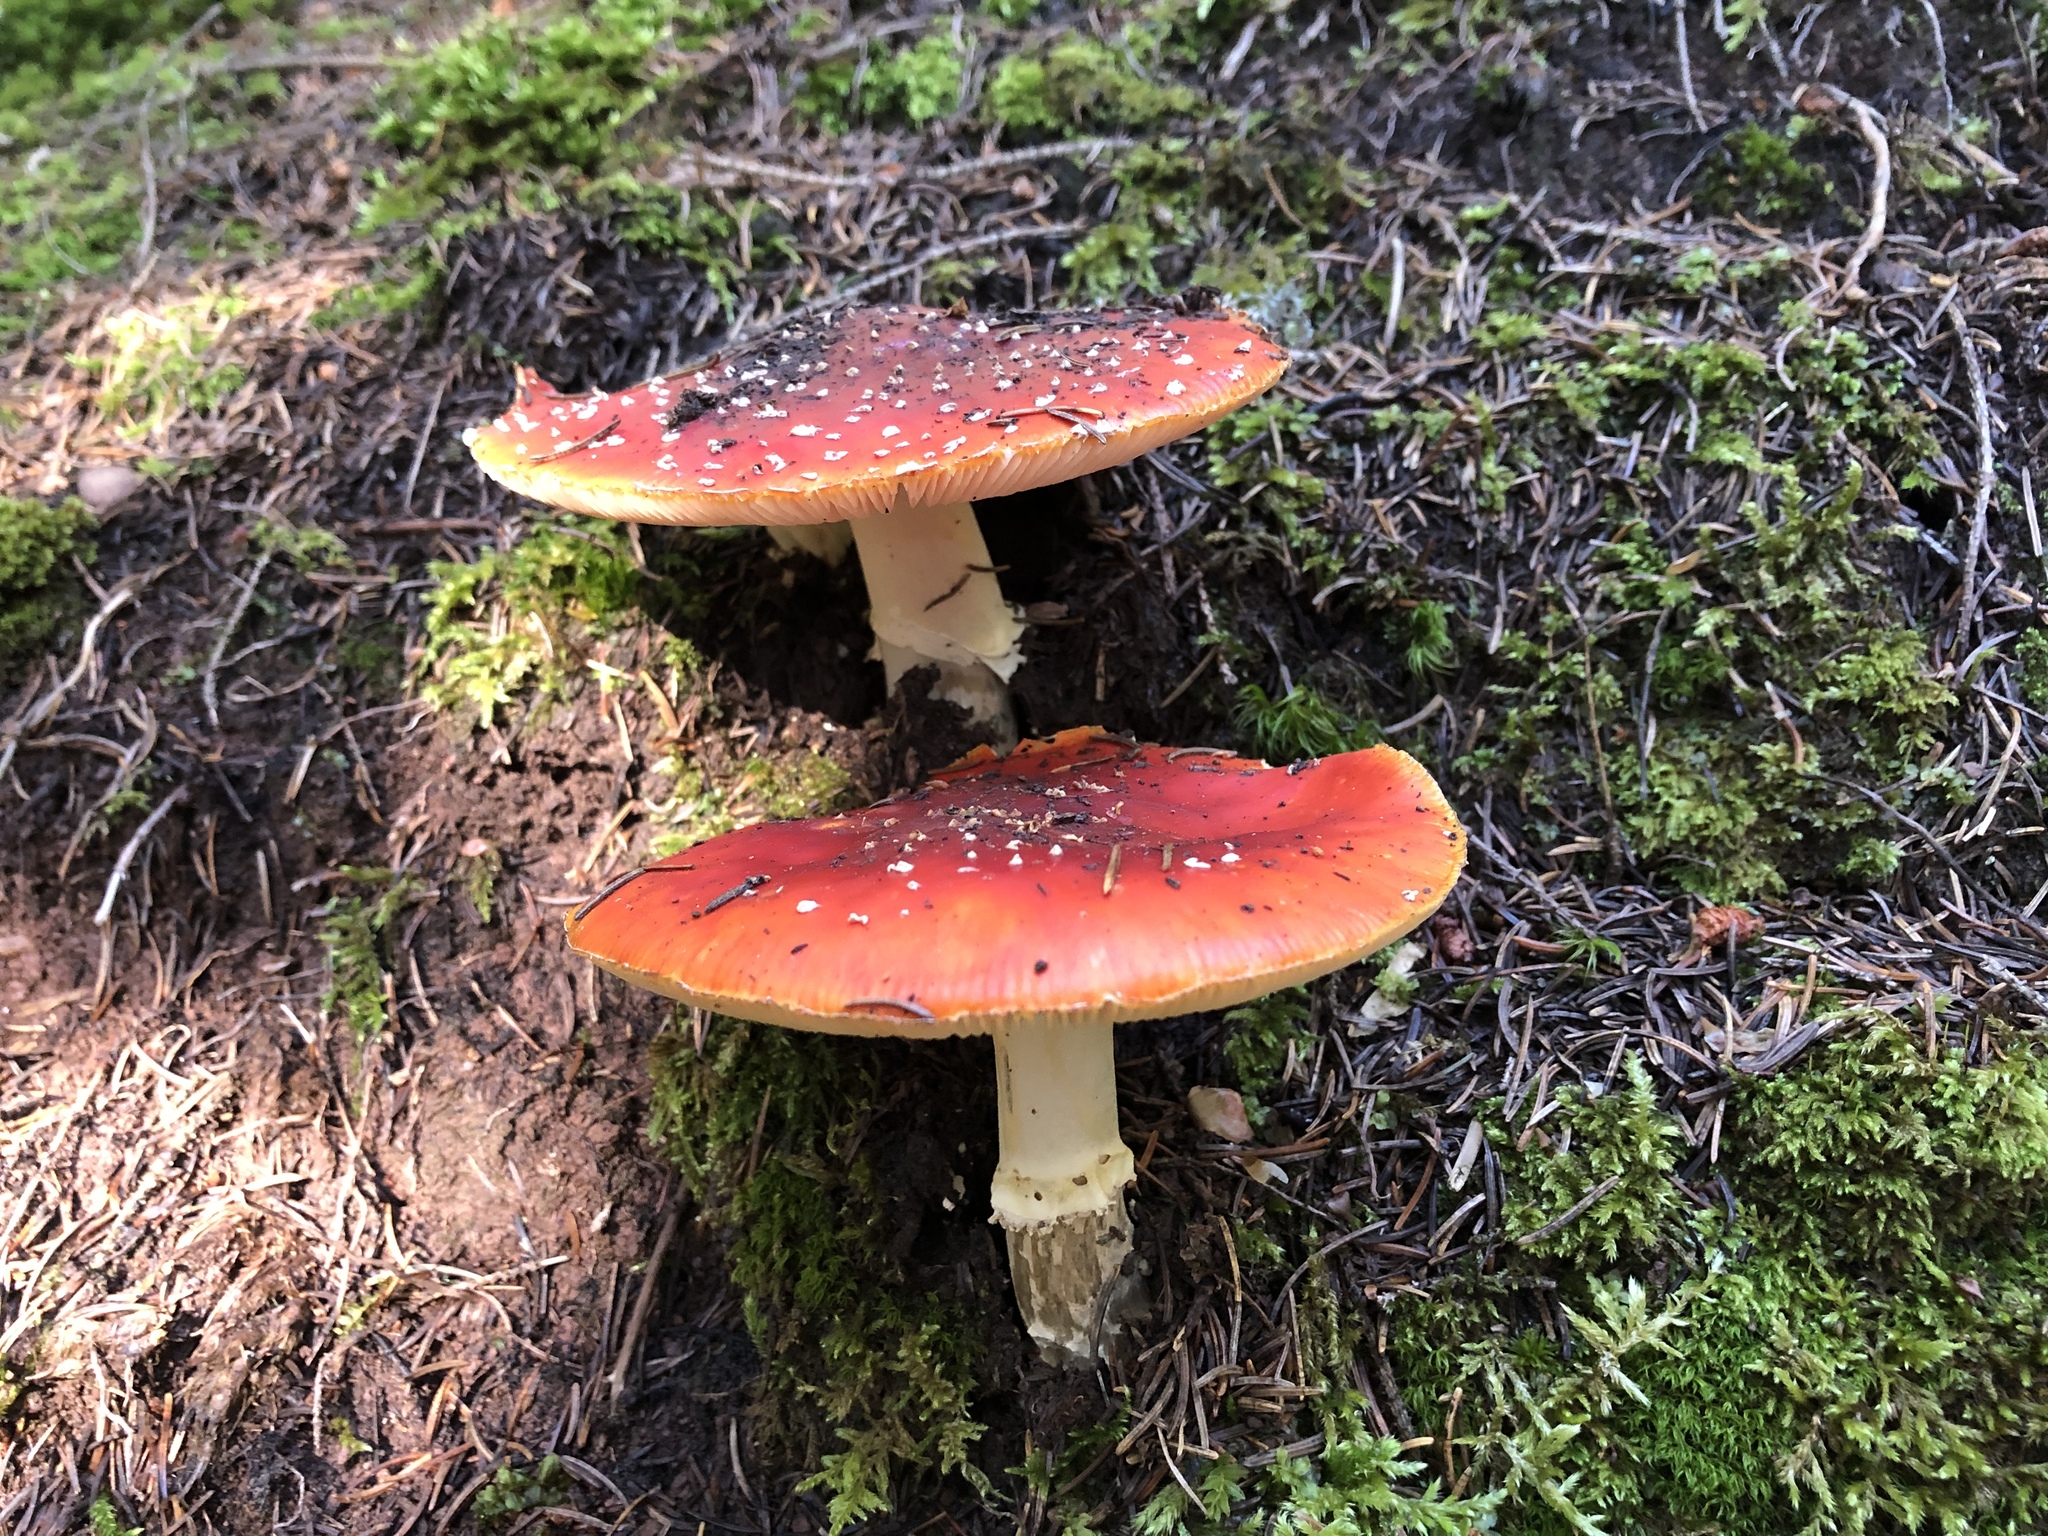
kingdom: Fungi
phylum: Basidiomycota
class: Agaricomycetes
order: Agaricales
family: Amanitaceae
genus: Amanita
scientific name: Amanita muscaria
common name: Fly agaric
